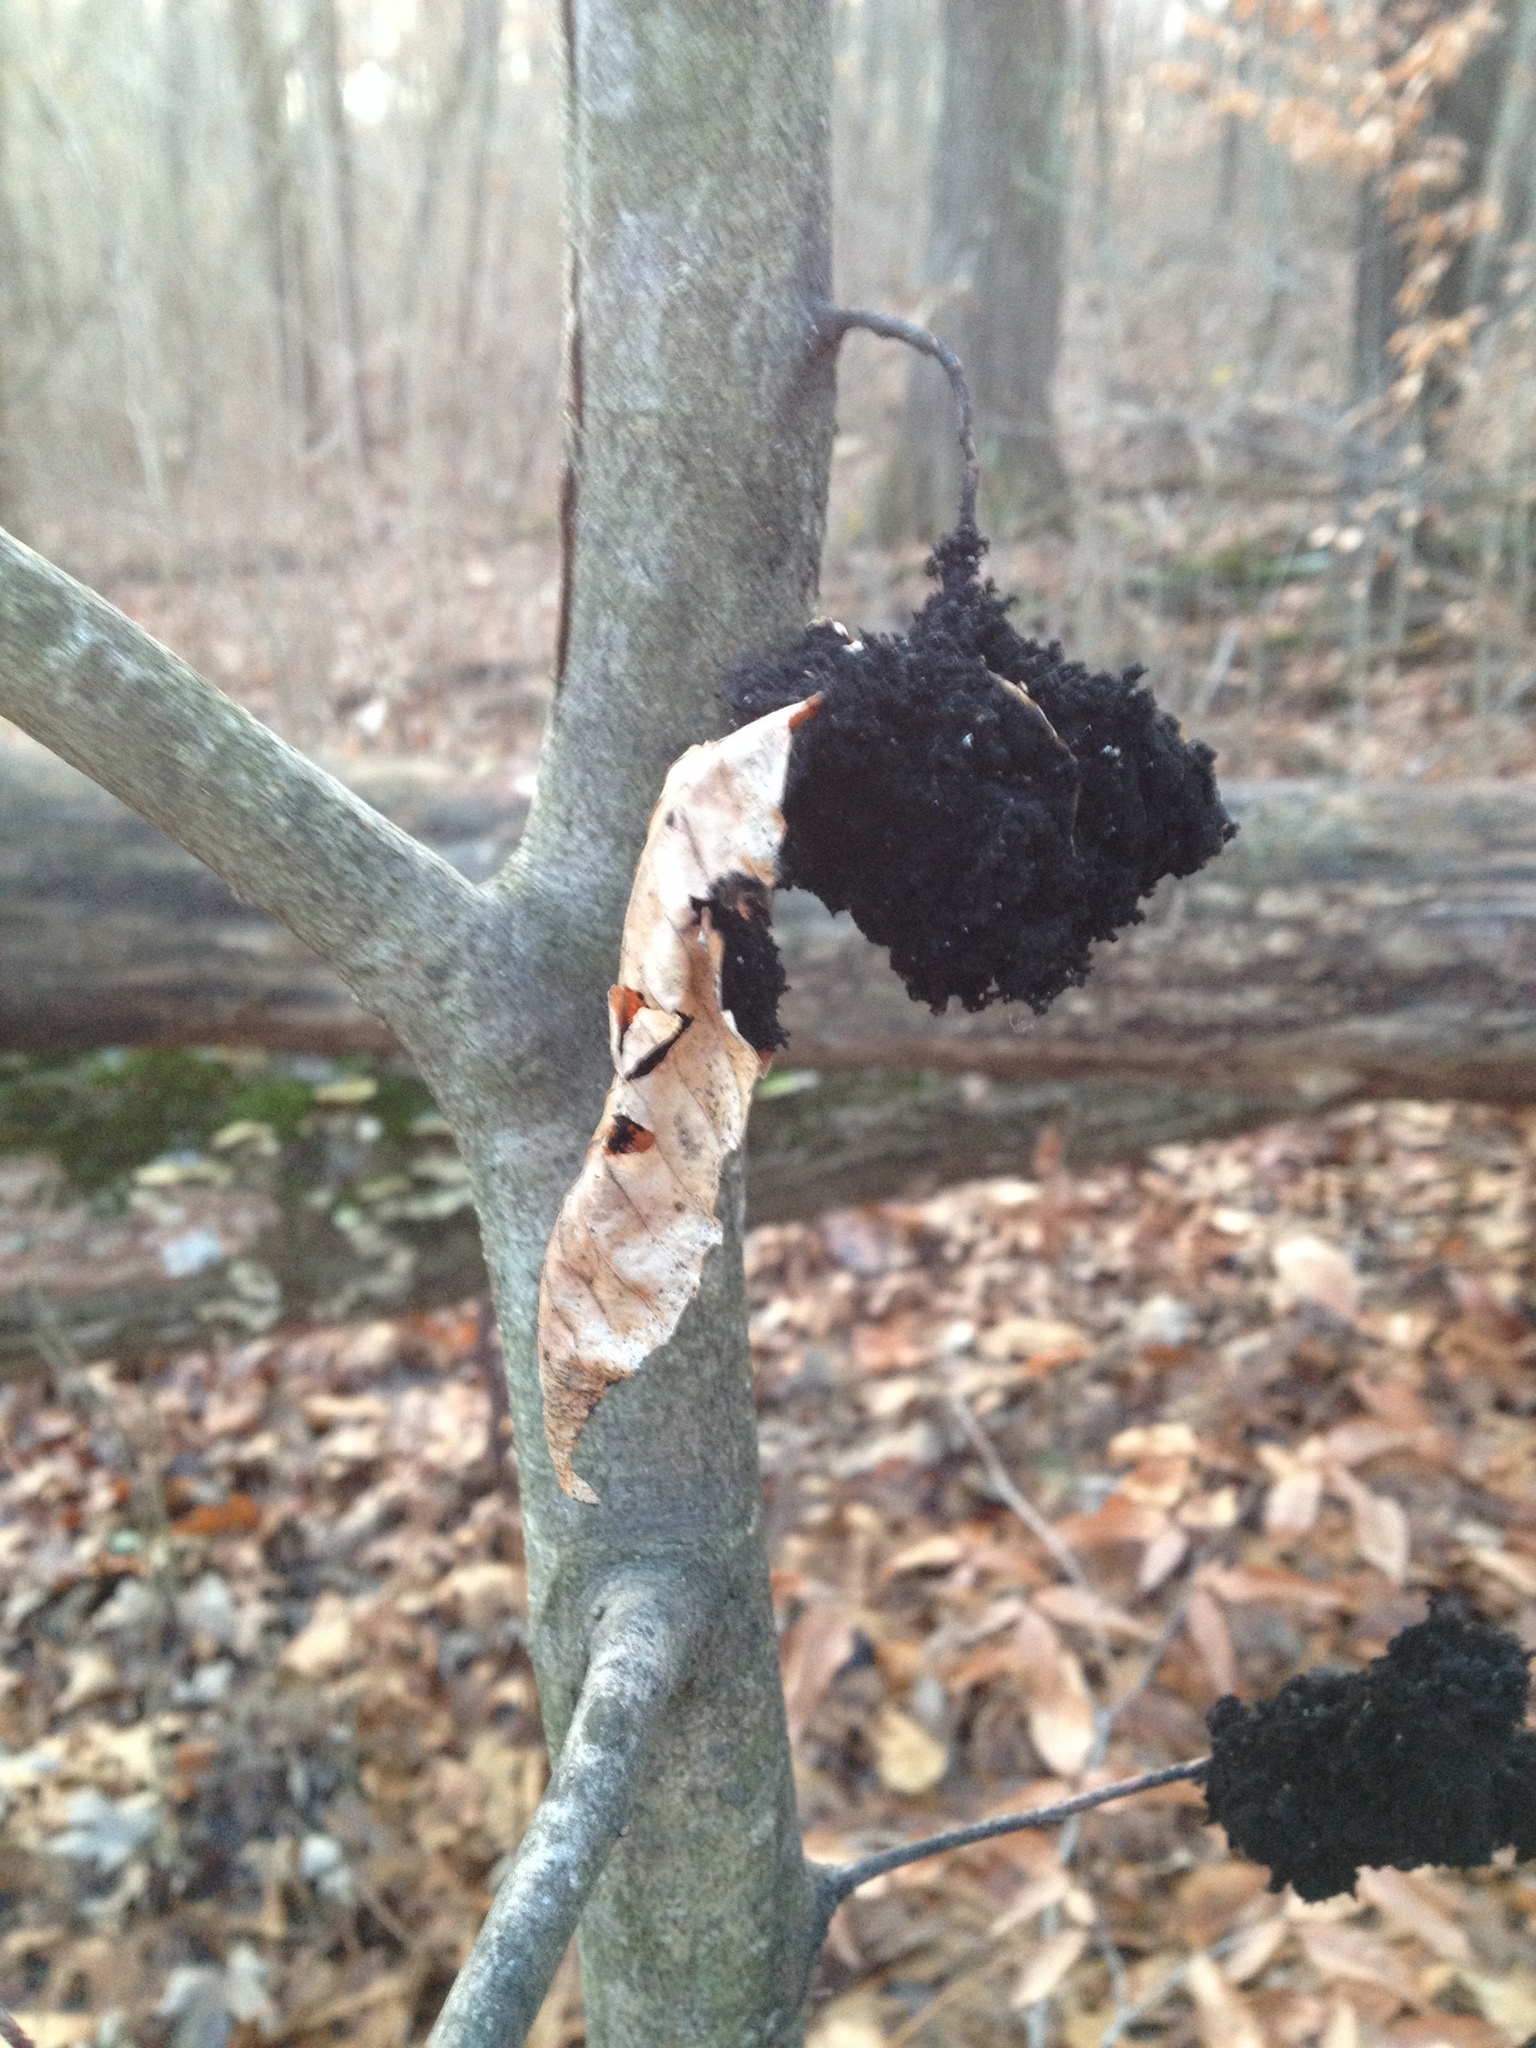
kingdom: Animalia
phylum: Arthropoda
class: Insecta
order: Hemiptera
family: Aphididae
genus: Grylloprociphilus
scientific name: Grylloprociphilus imbricator
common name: Beech blight aphid
